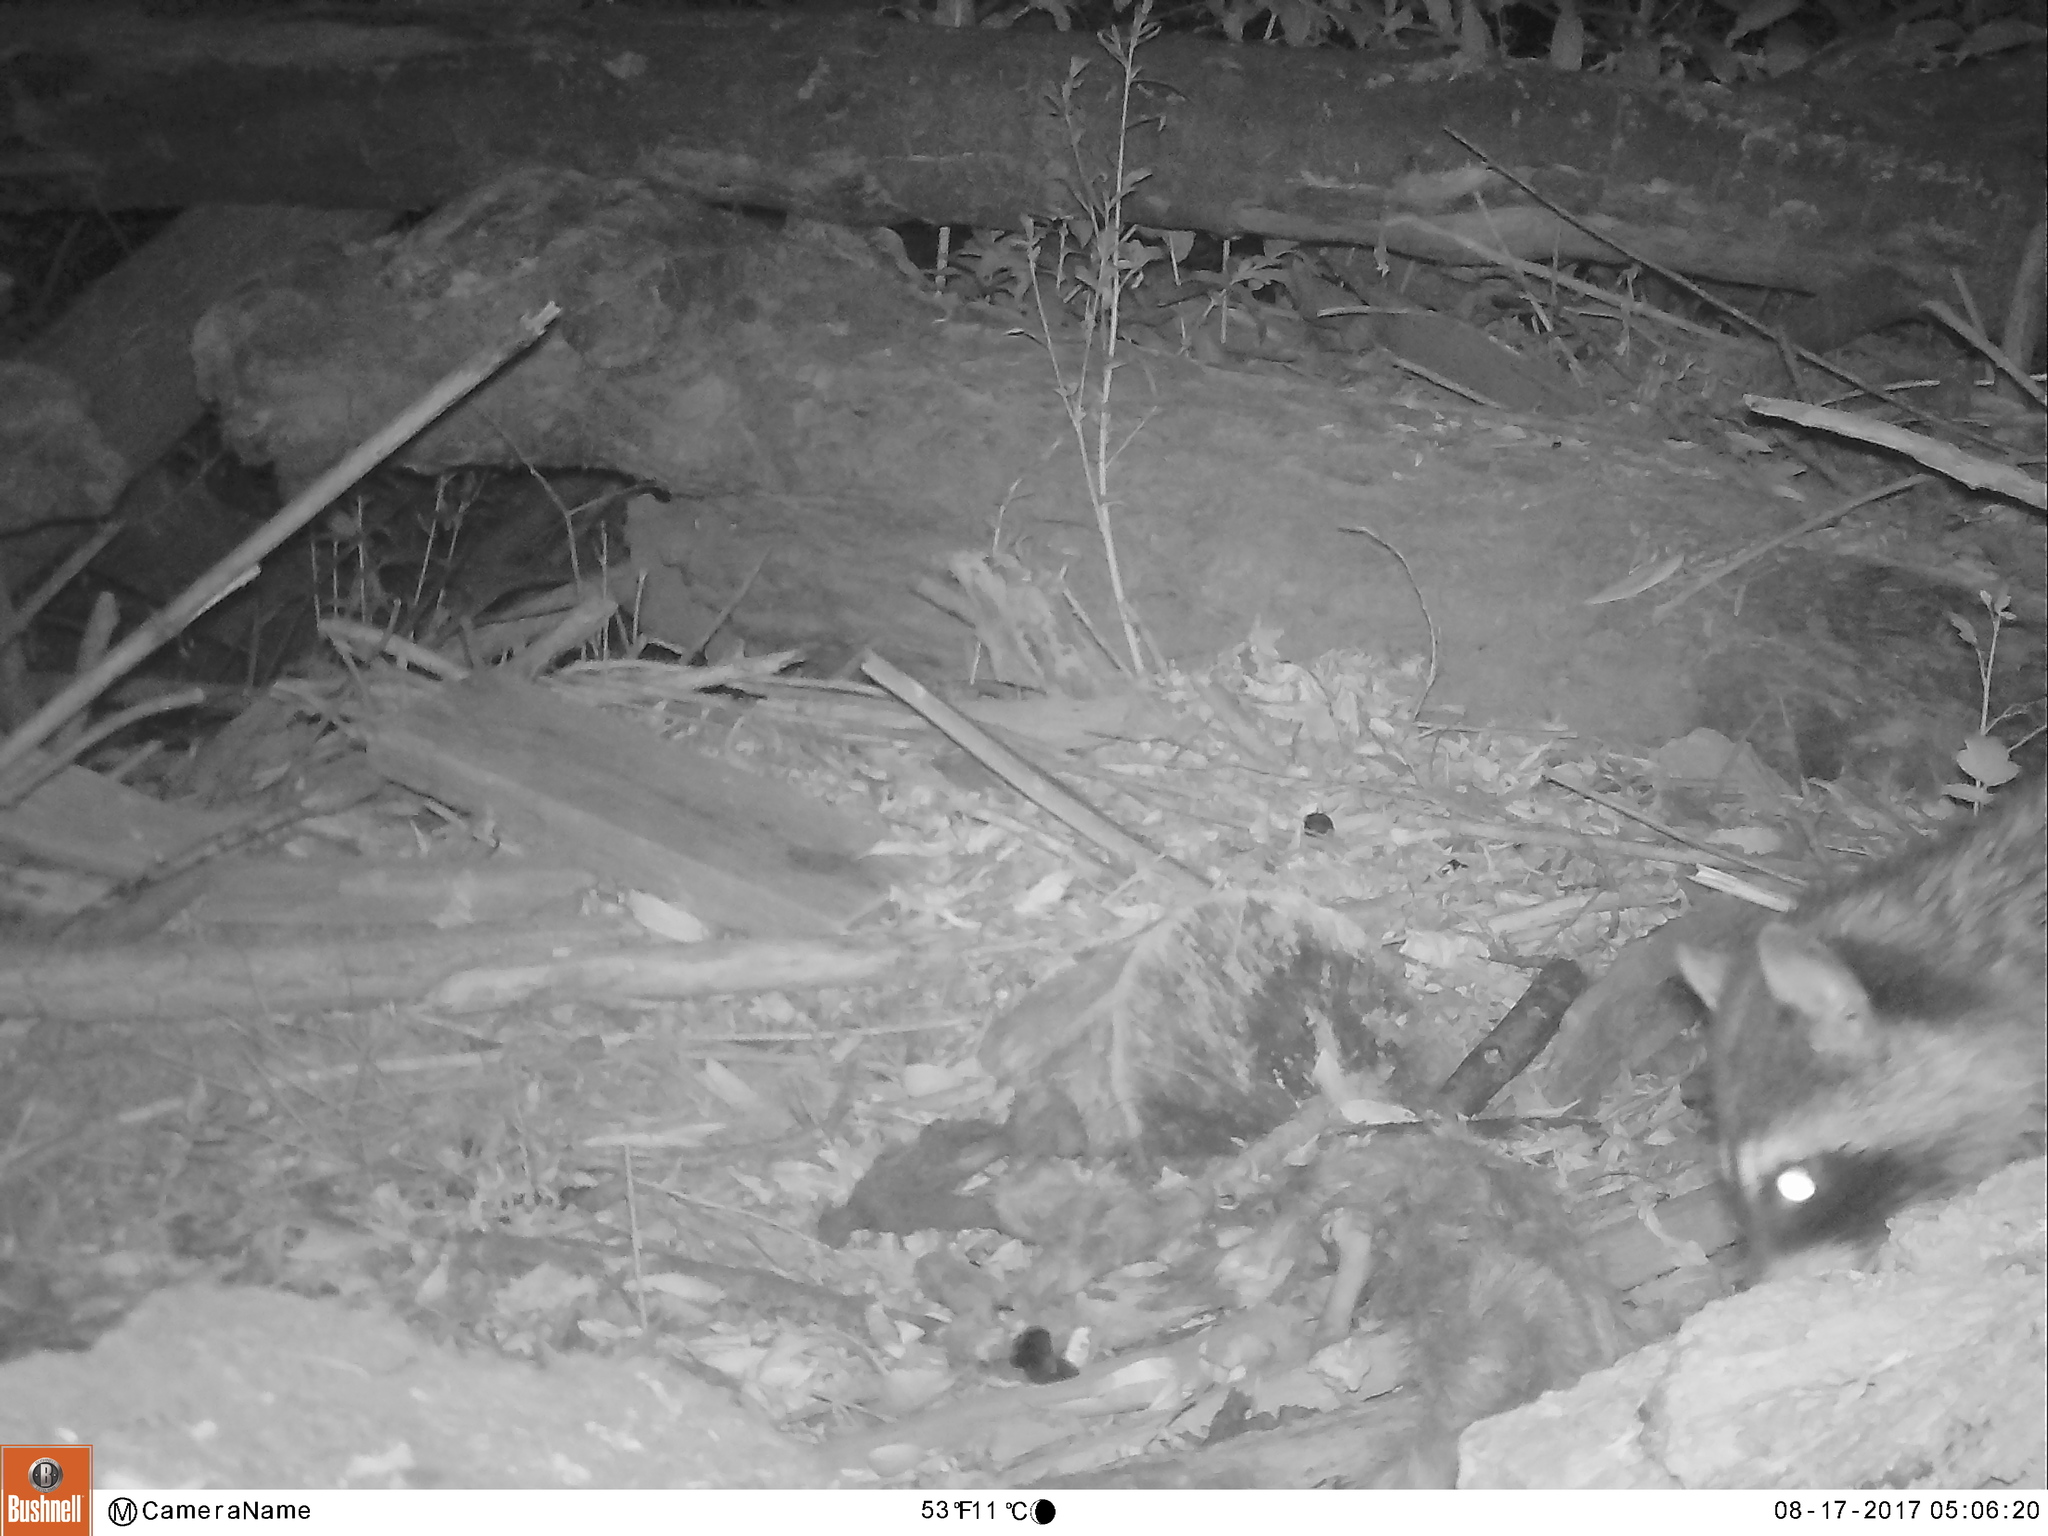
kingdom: Animalia
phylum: Chordata
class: Mammalia
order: Carnivora
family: Procyonidae
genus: Procyon
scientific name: Procyon lotor
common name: Raccoon
